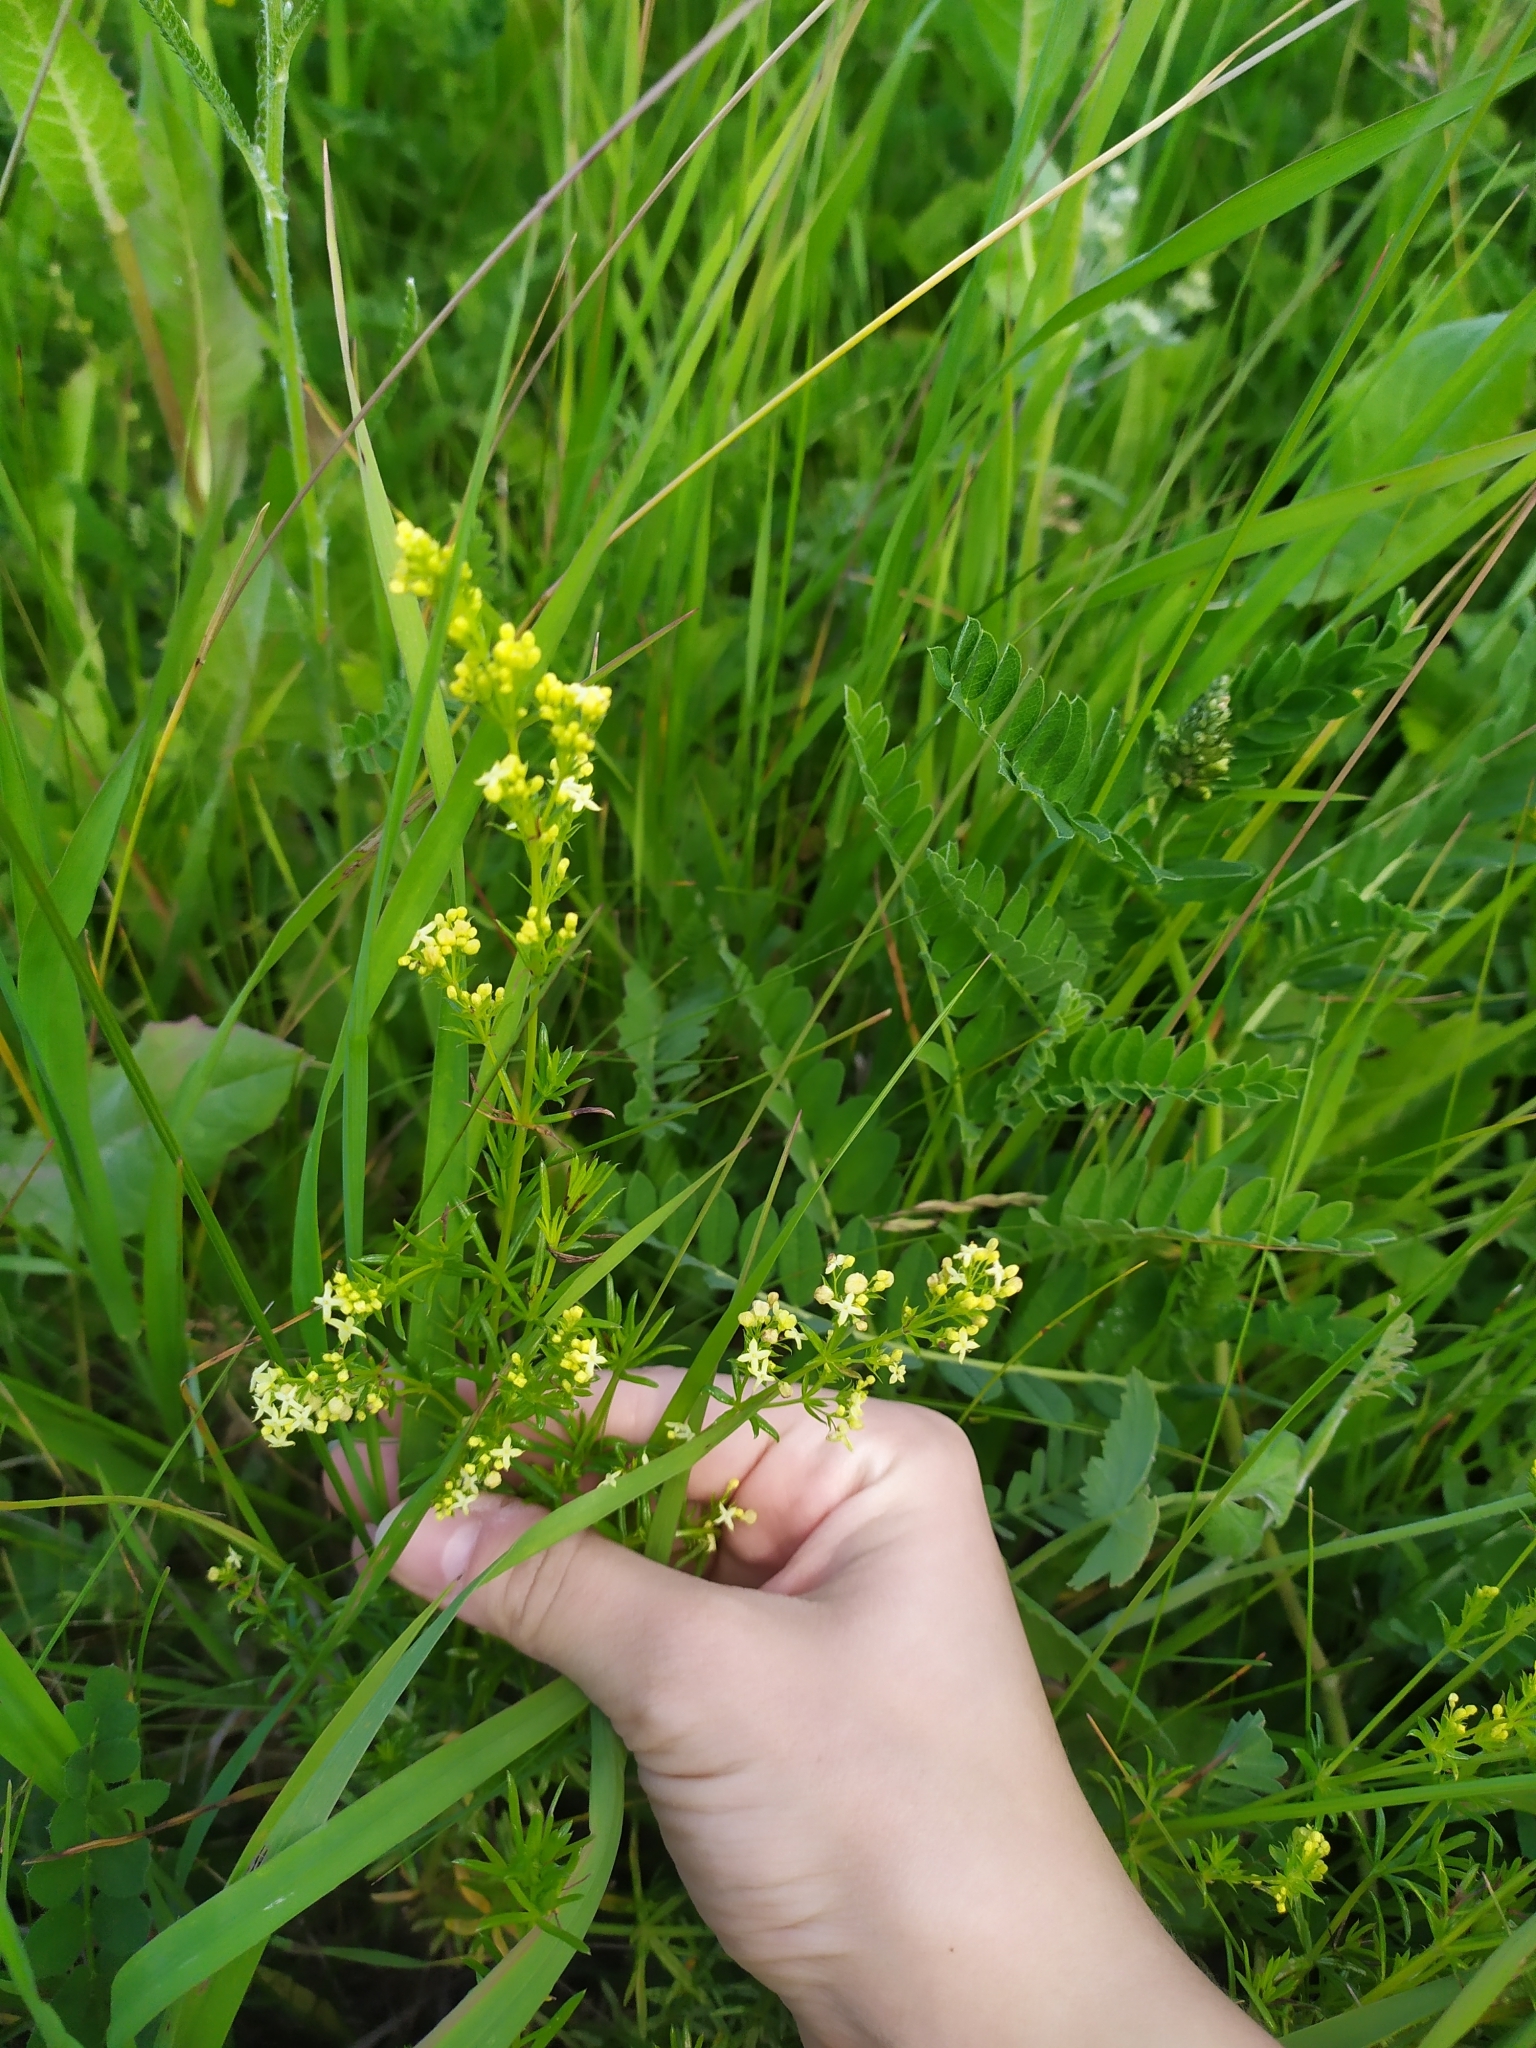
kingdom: Plantae
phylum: Tracheophyta
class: Magnoliopsida
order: Gentianales
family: Rubiaceae
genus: Galium
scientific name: Galium pomeranicum
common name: Bedstraw
